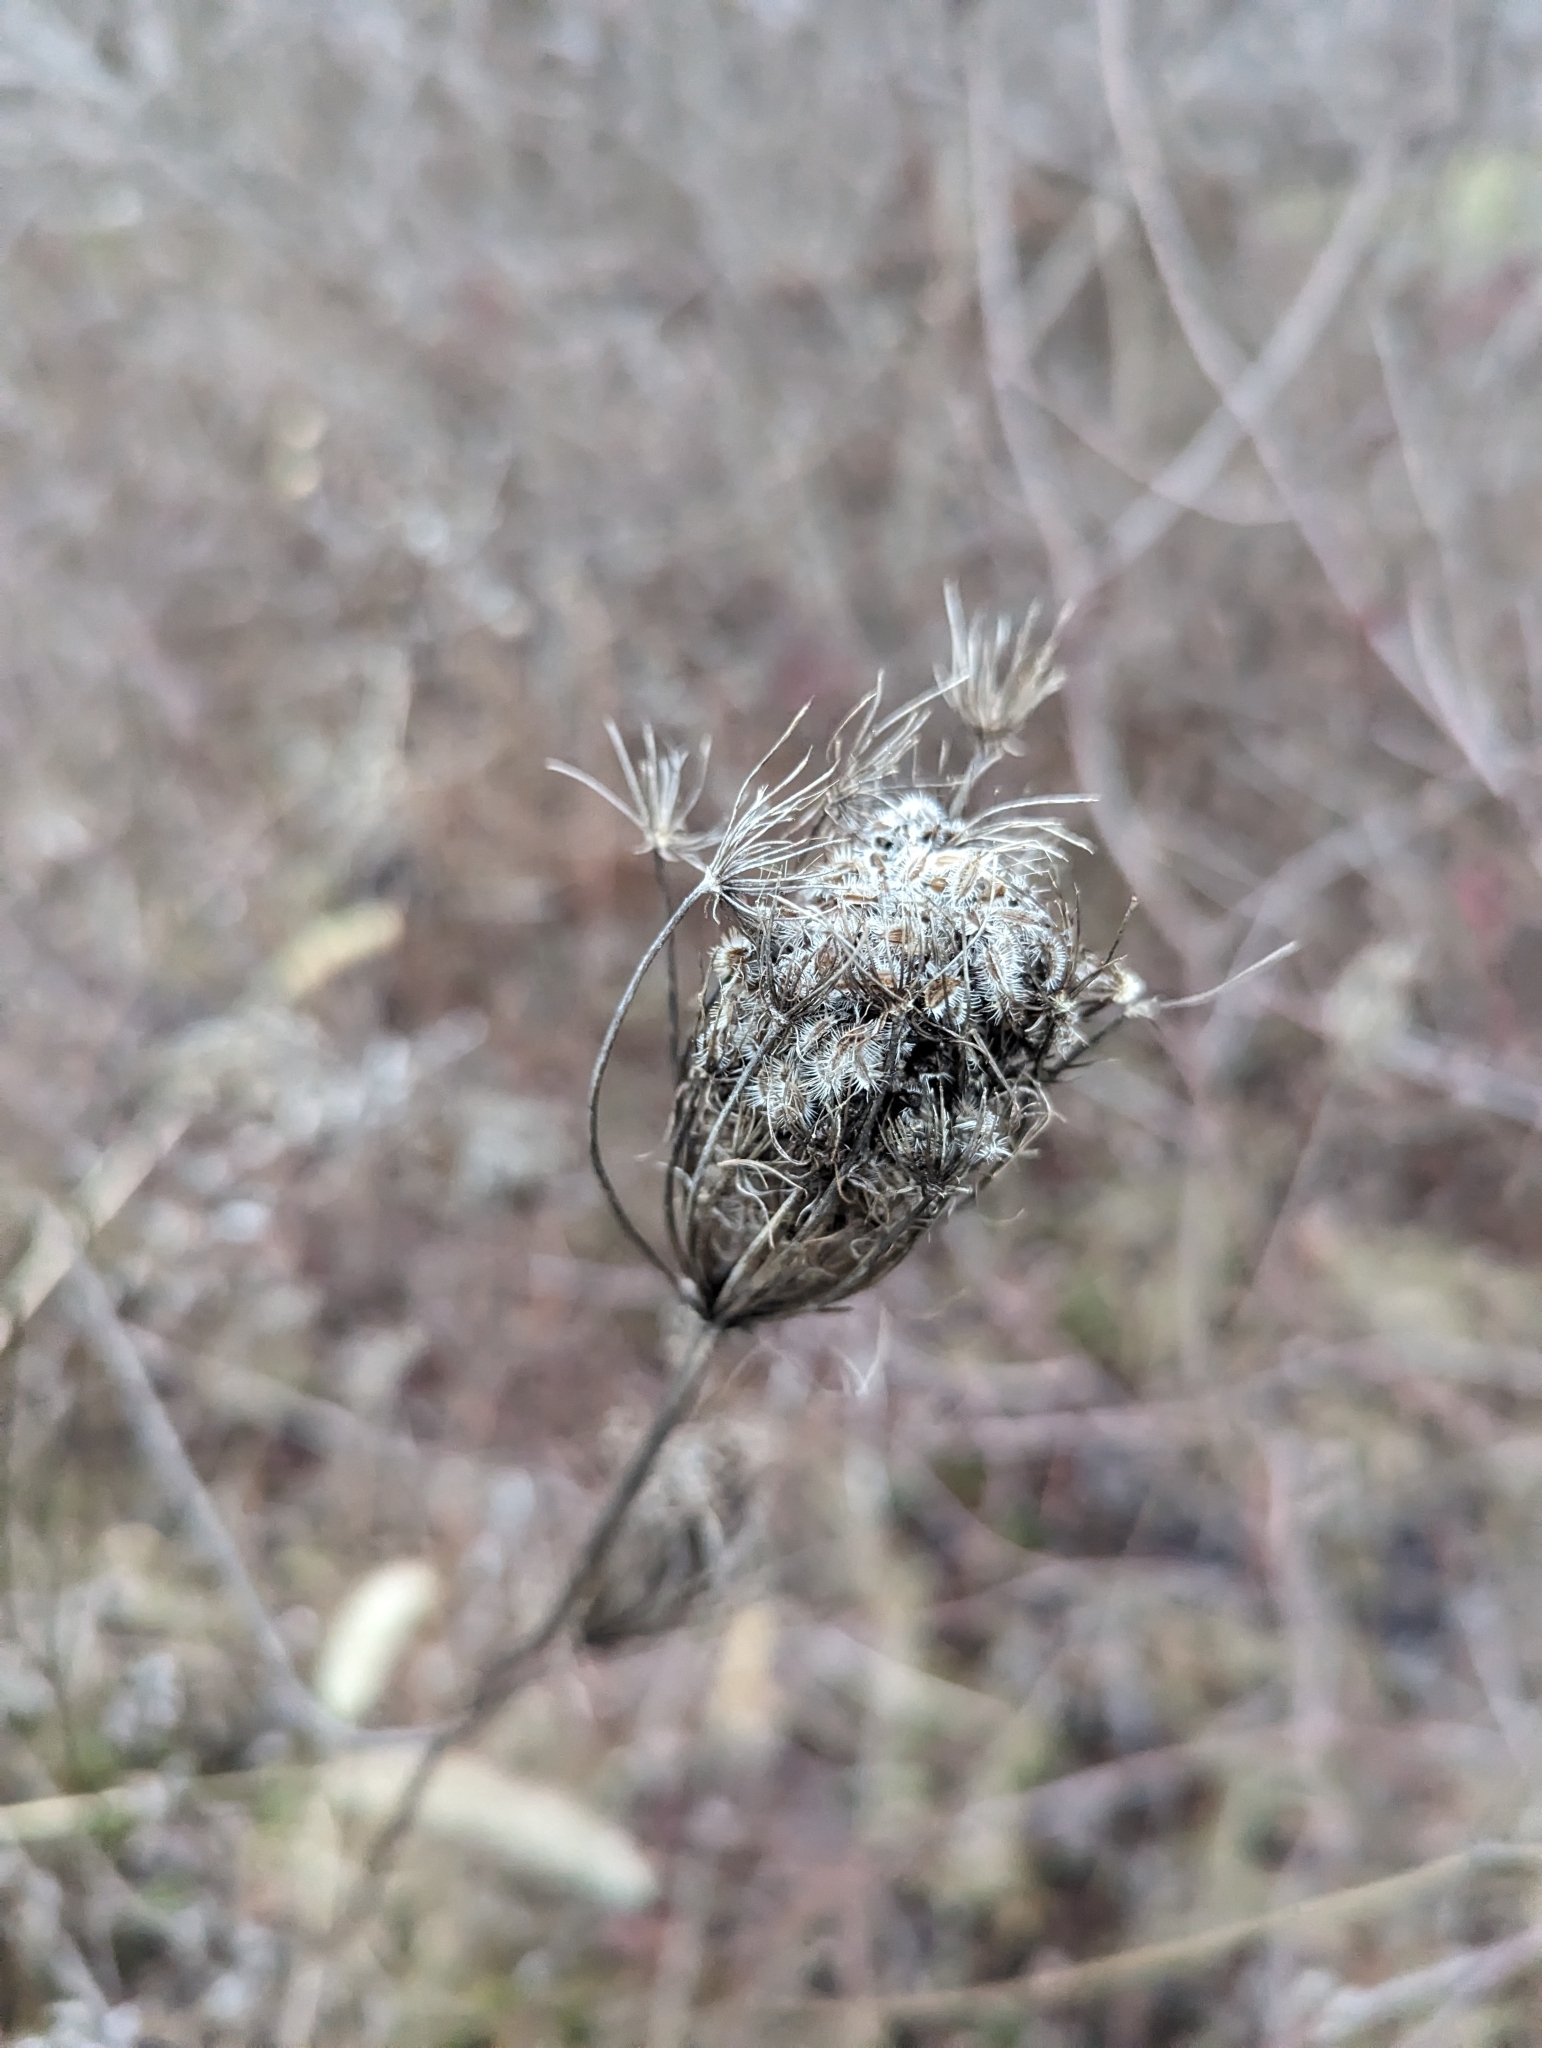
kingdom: Plantae
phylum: Tracheophyta
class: Magnoliopsida
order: Apiales
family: Apiaceae
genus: Daucus
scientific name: Daucus carota
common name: Wild carrot
